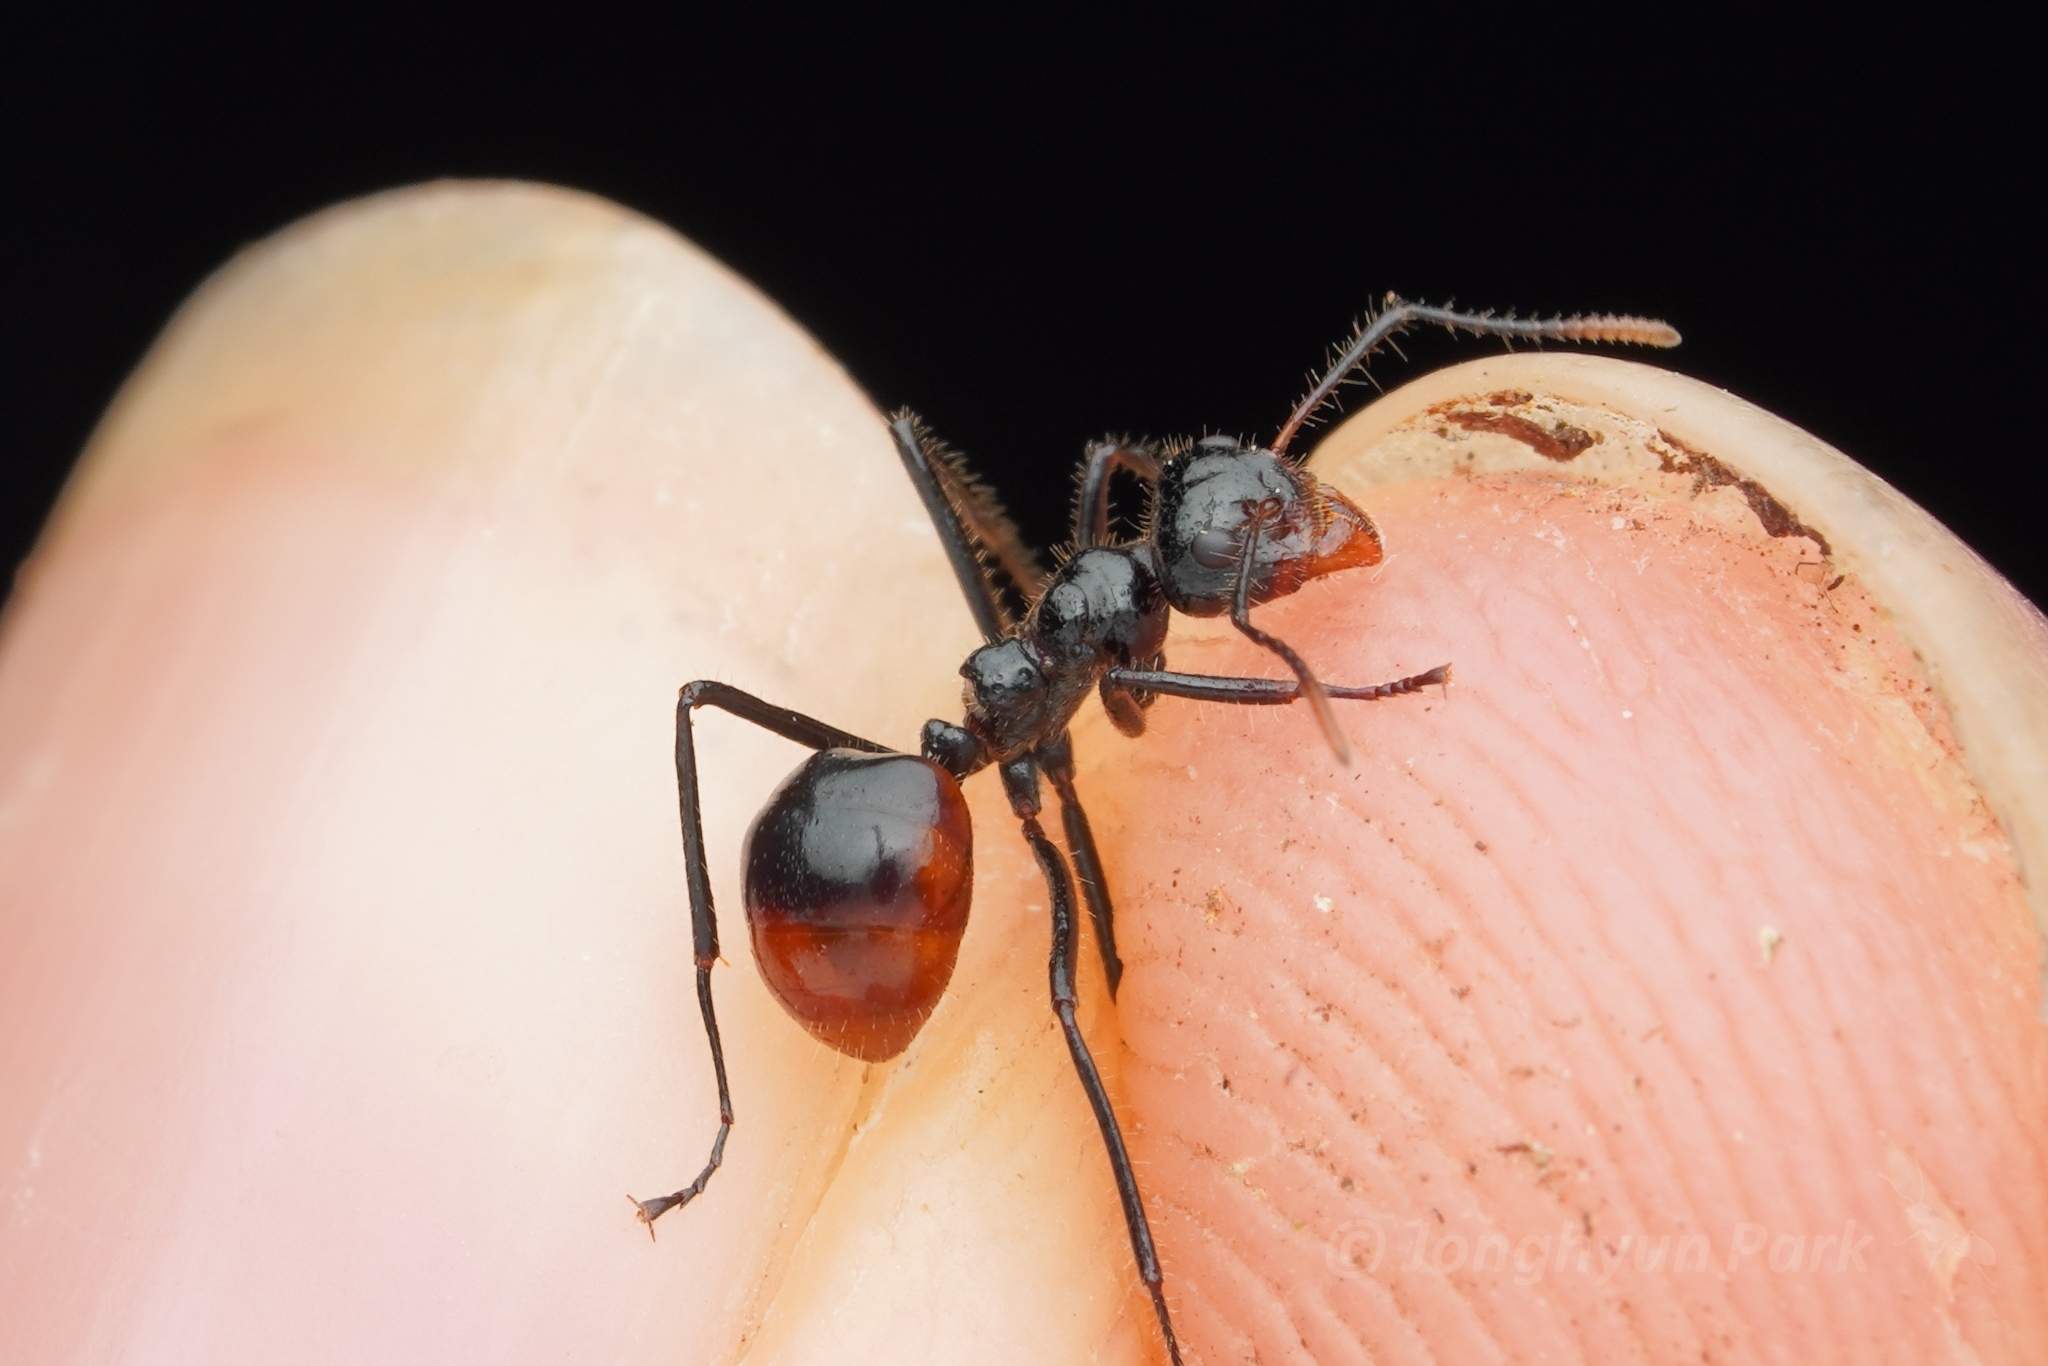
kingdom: Animalia
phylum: Arthropoda
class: Insecta
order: Hymenoptera
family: Formicidae
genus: Dolichoderus
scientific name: Dolichoderus sulcaticeps
